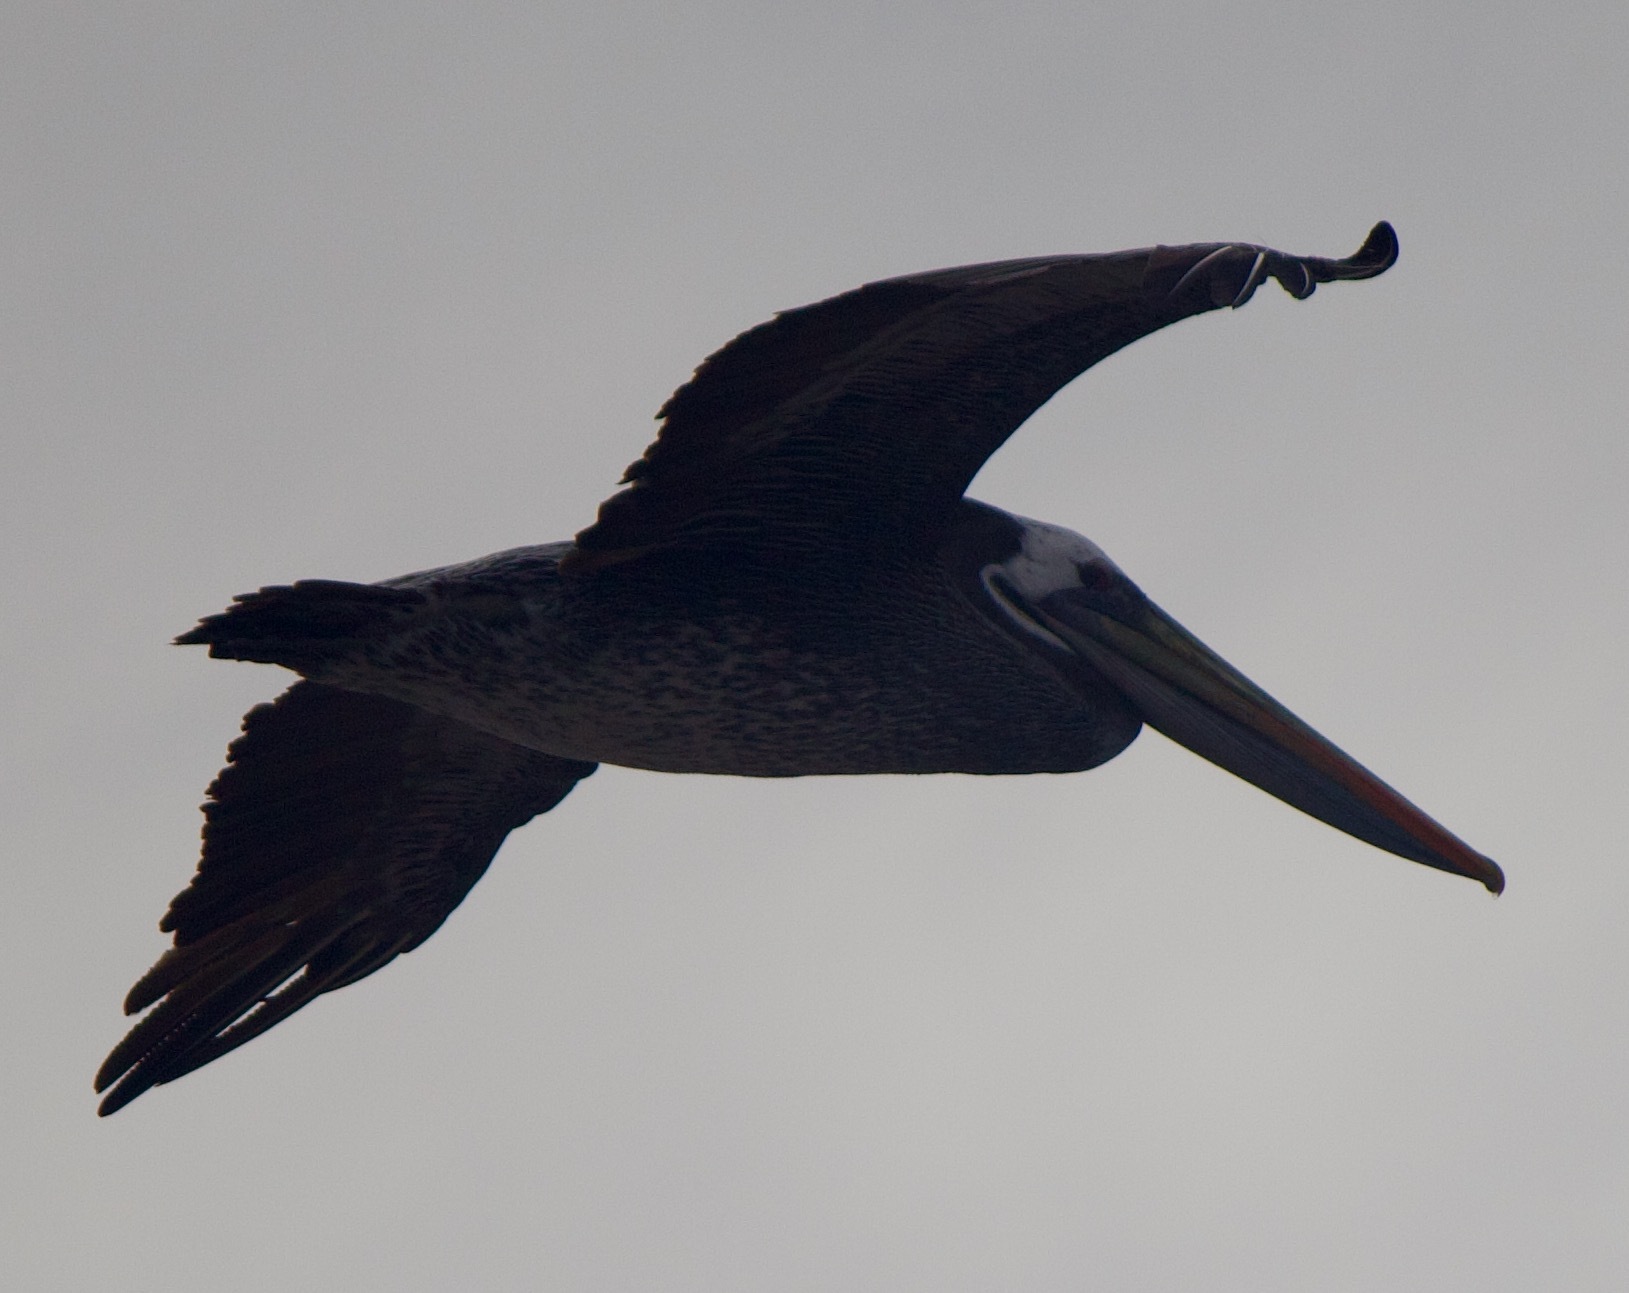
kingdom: Animalia
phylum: Chordata
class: Aves
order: Pelecaniformes
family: Pelecanidae
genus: Pelecanus
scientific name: Pelecanus thagus
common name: Peruvian pelican
